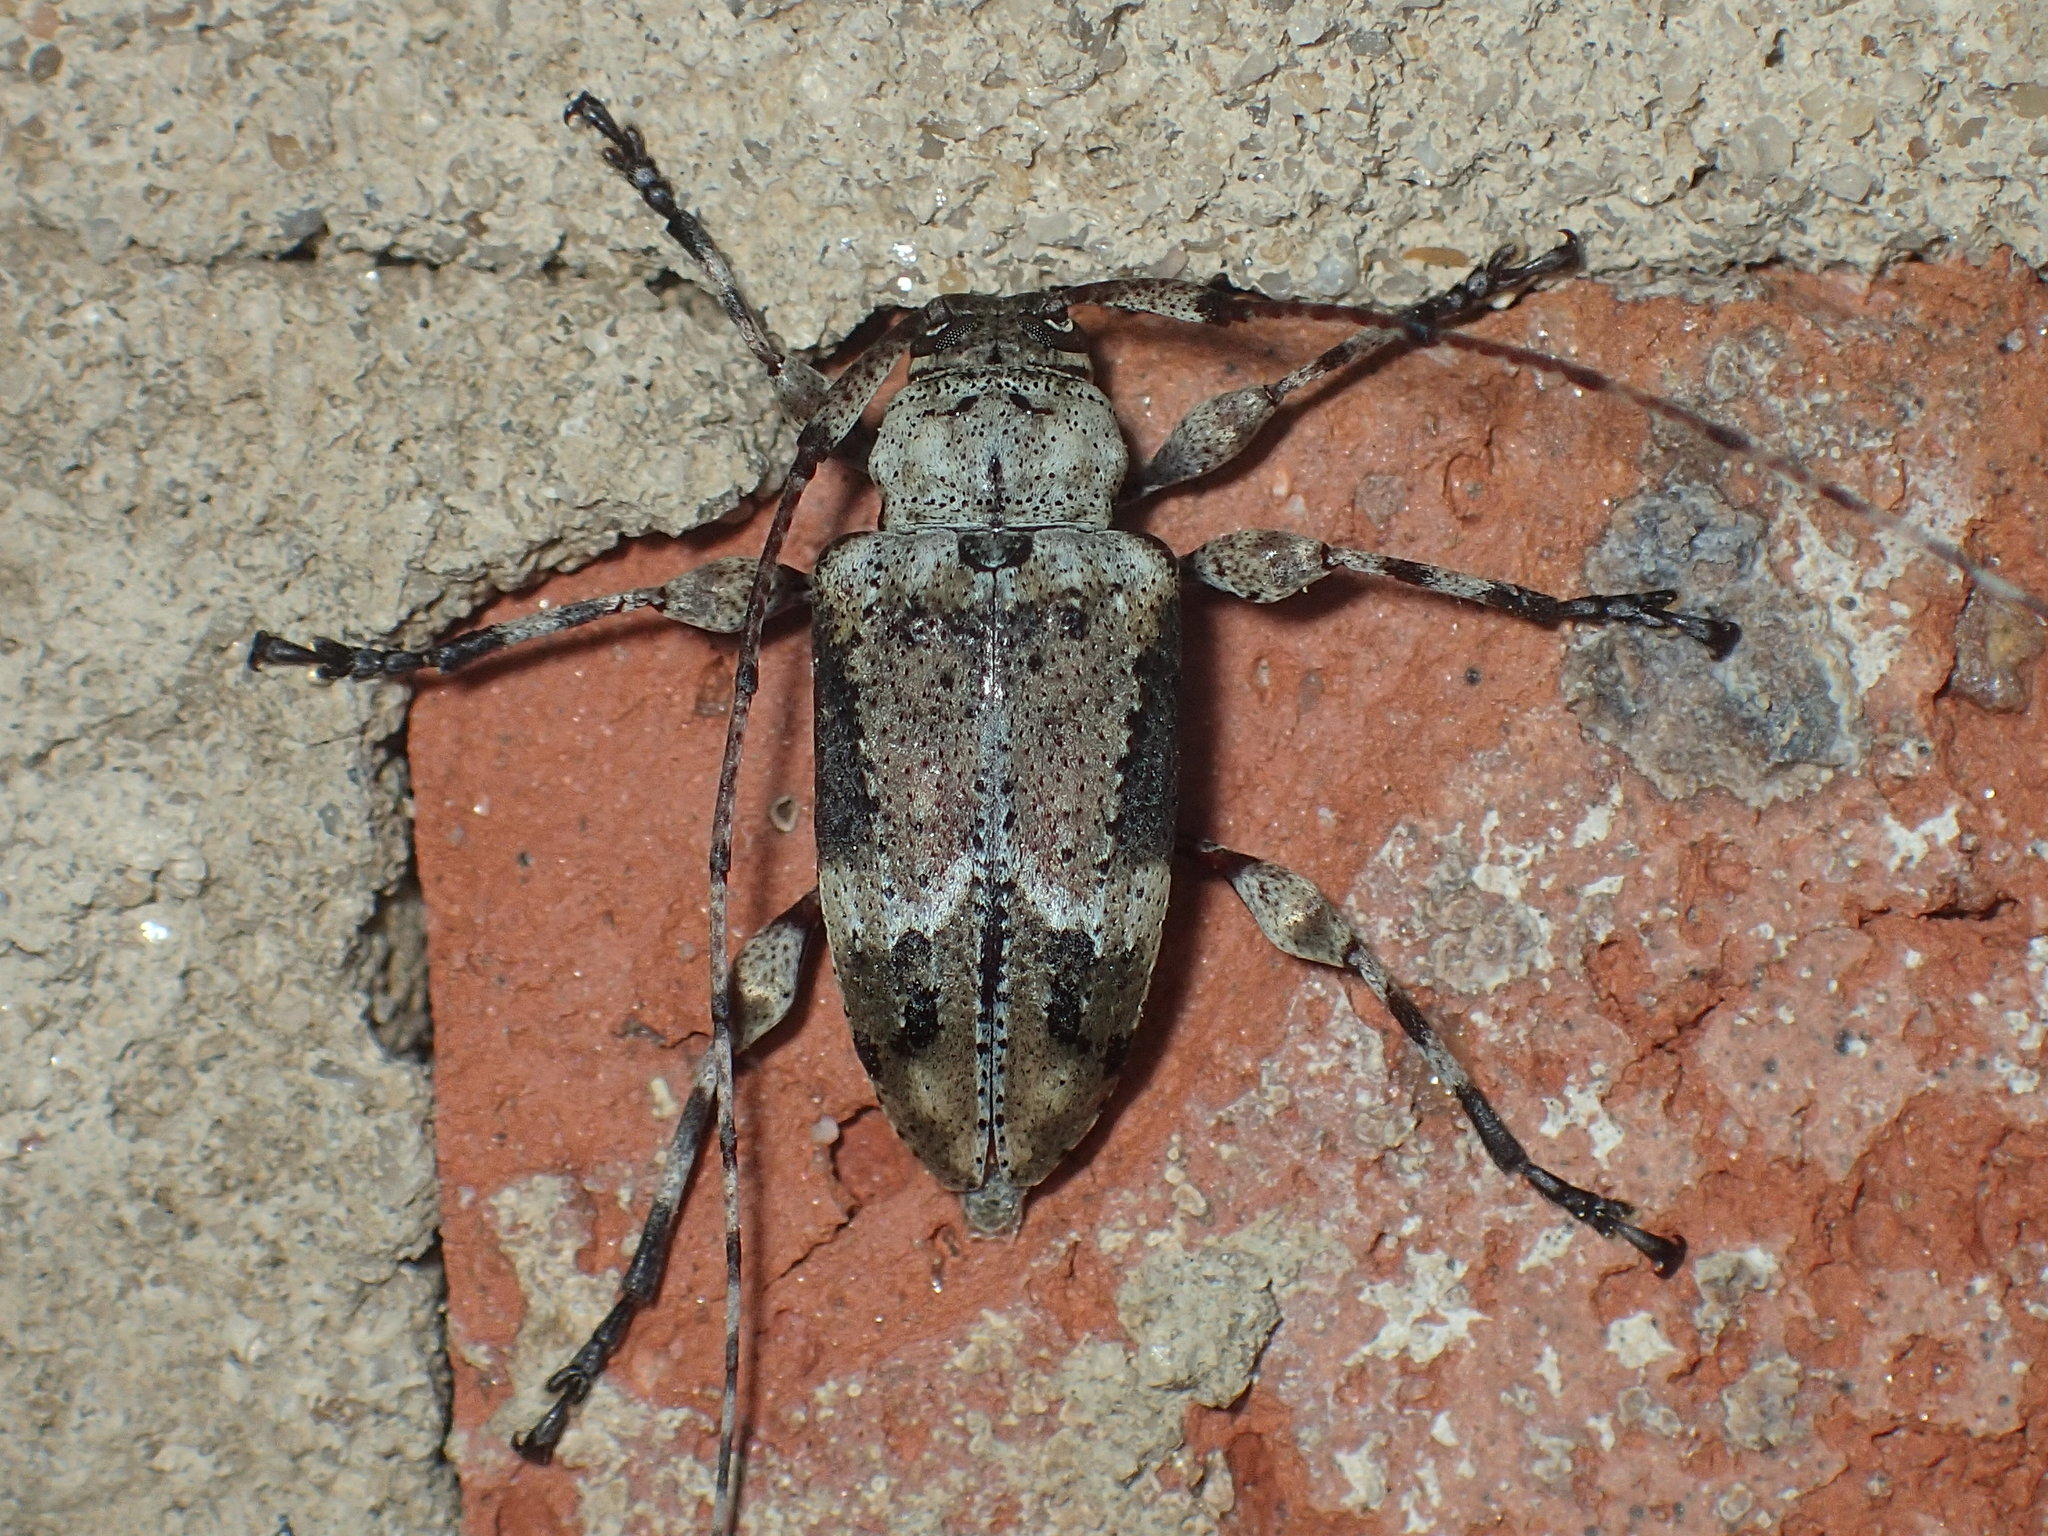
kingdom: Animalia
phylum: Arthropoda
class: Insecta
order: Coleoptera
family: Cerambycidae
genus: Leptostylopsis
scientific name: Leptostylopsis planidorsus
